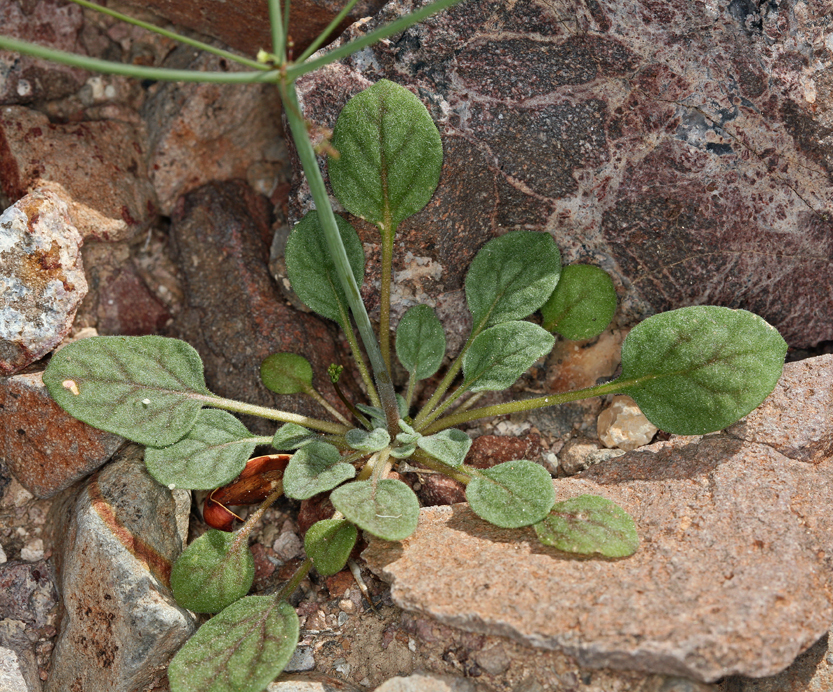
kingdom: Plantae
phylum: Tracheophyta
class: Magnoliopsida
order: Caryophyllales
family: Polygonaceae
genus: Eriogonum
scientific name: Eriogonum thomasii
